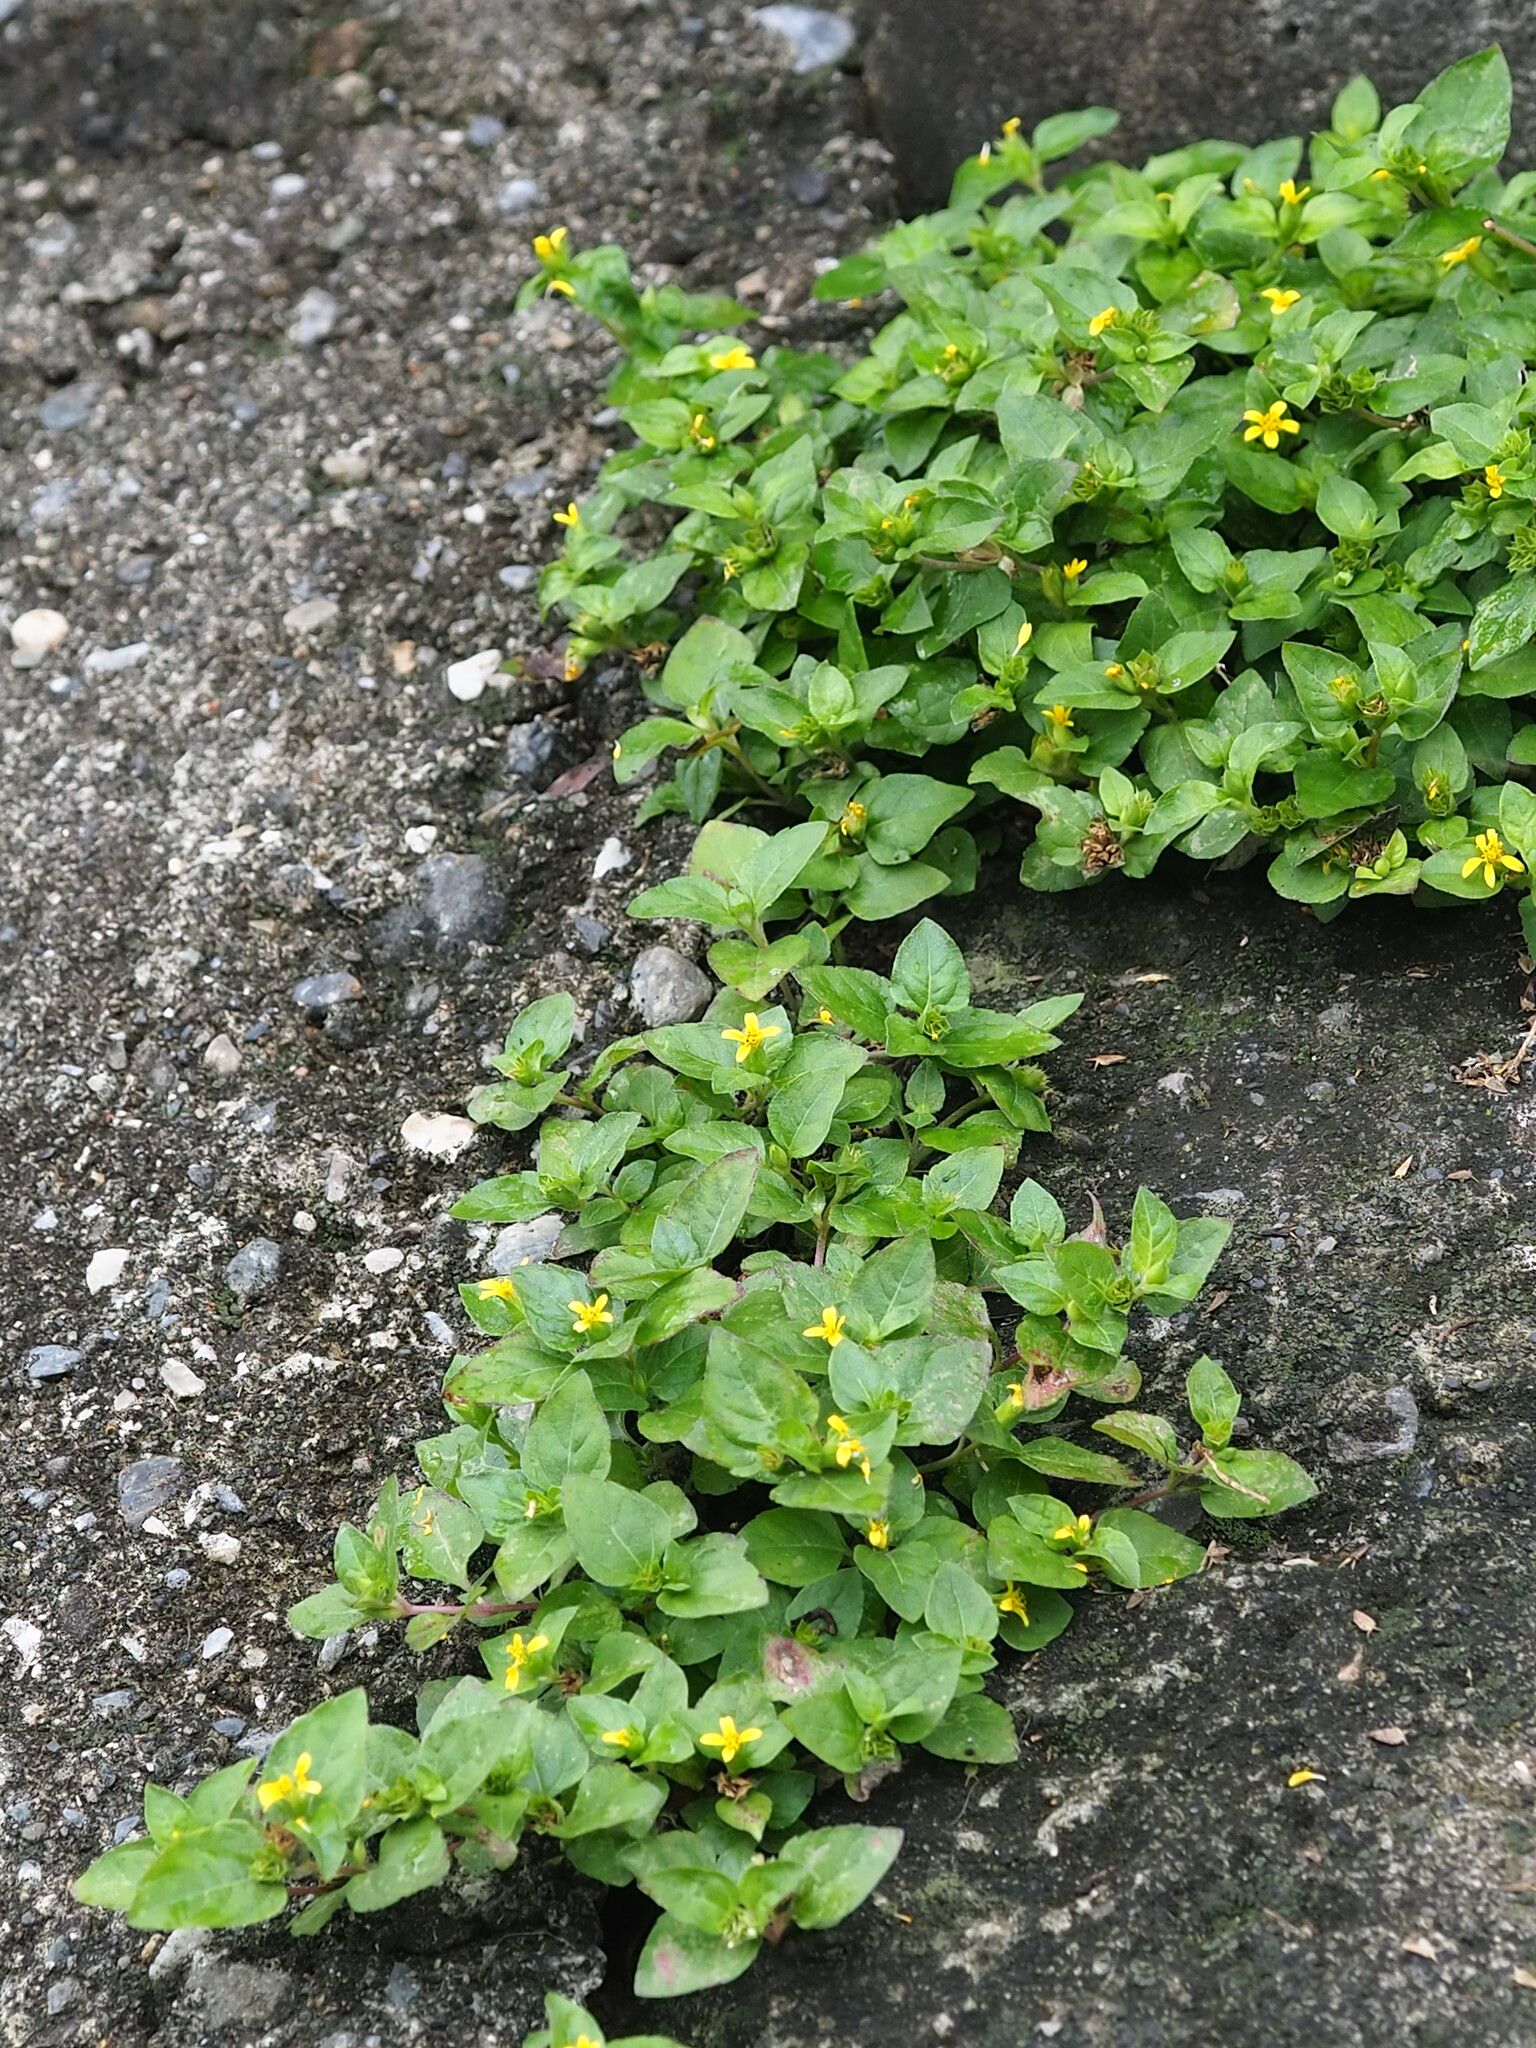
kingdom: Plantae
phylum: Tracheophyta
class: Magnoliopsida
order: Asterales
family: Asteraceae
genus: Calyptocarpus
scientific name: Calyptocarpus vialis
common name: Straggler daisy
